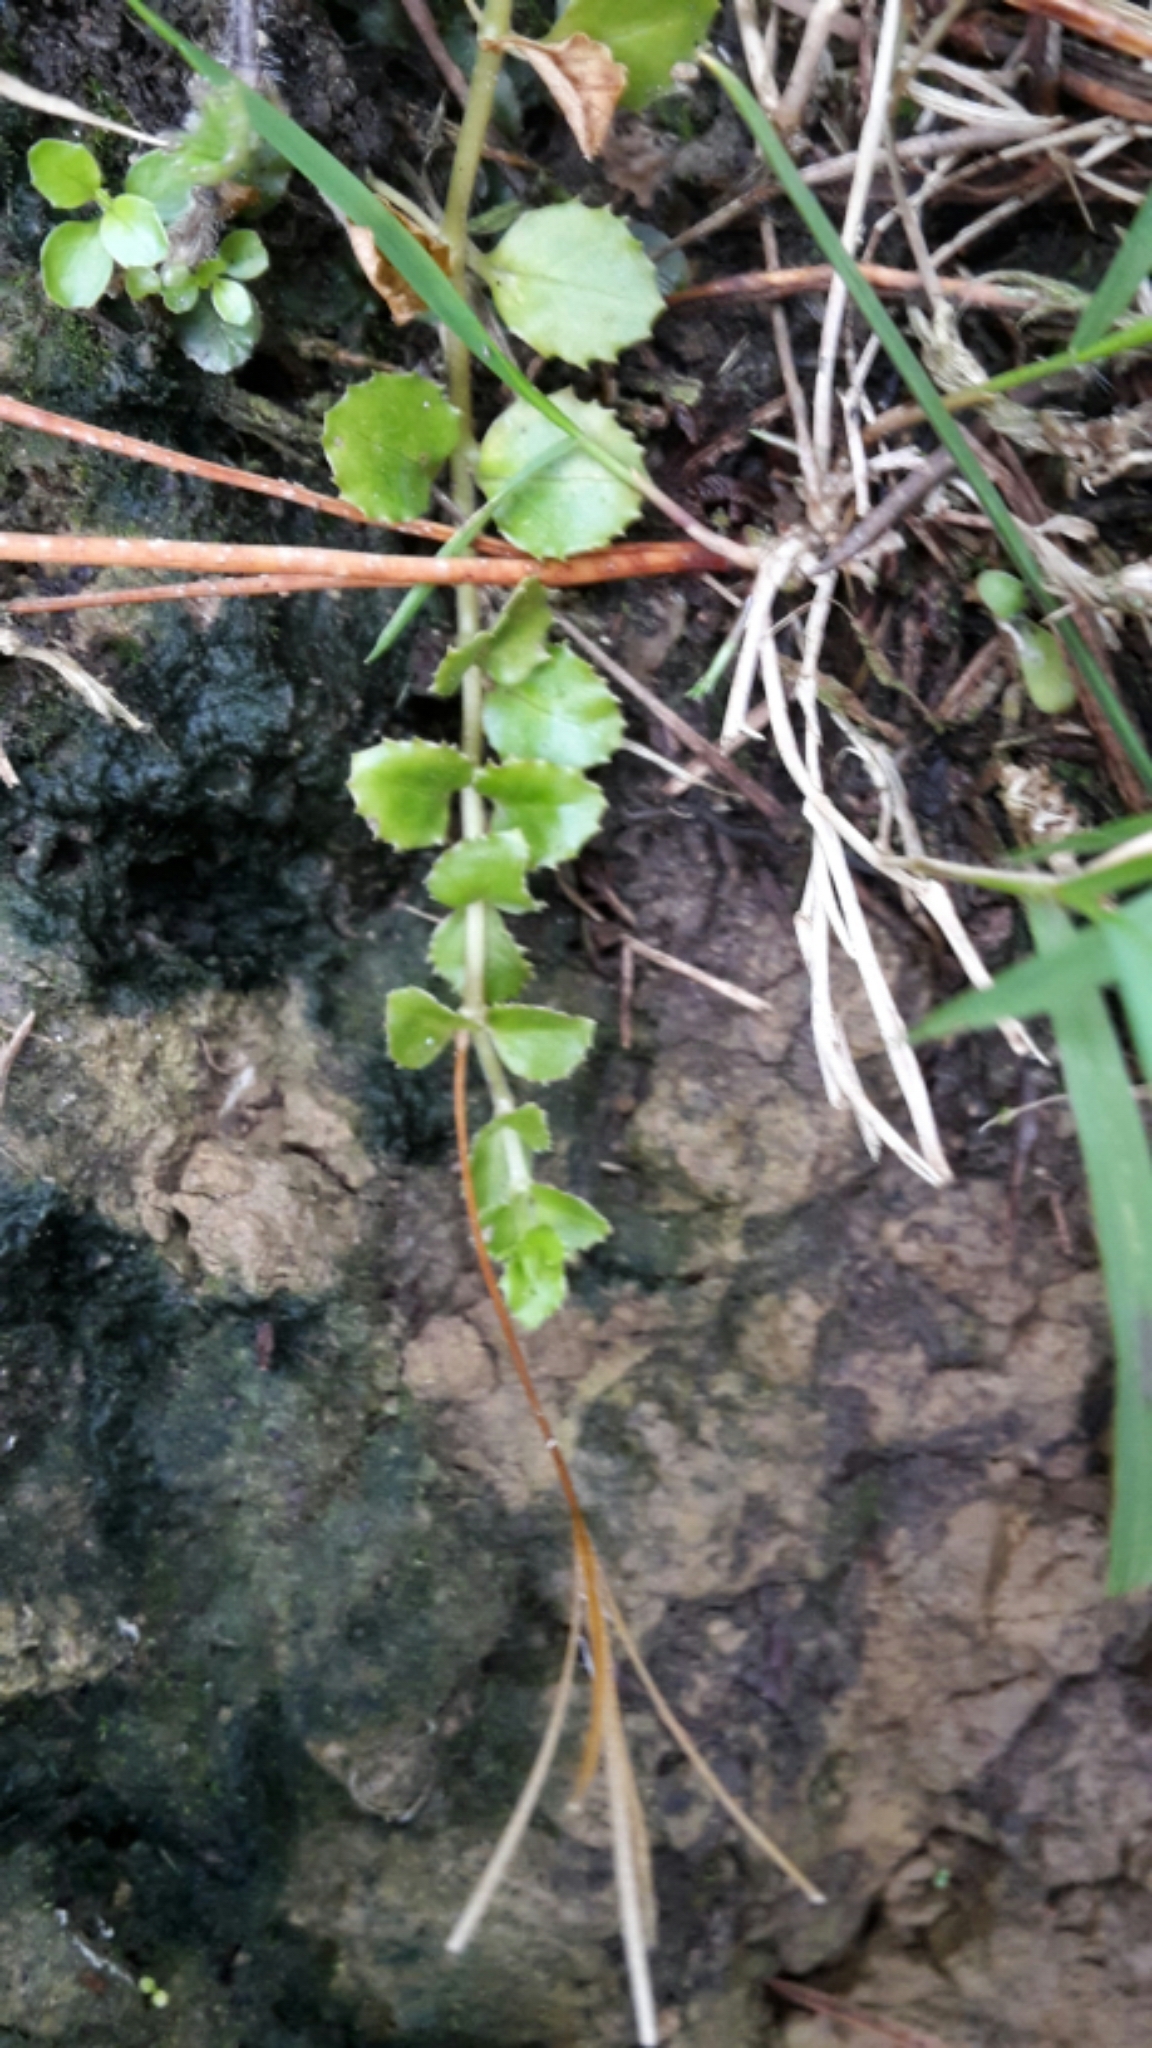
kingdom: Plantae
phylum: Tracheophyta
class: Magnoliopsida
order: Myrtales
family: Onagraceae
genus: Epilobium
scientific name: Epilobium pedunculare
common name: Rockery willowherb
